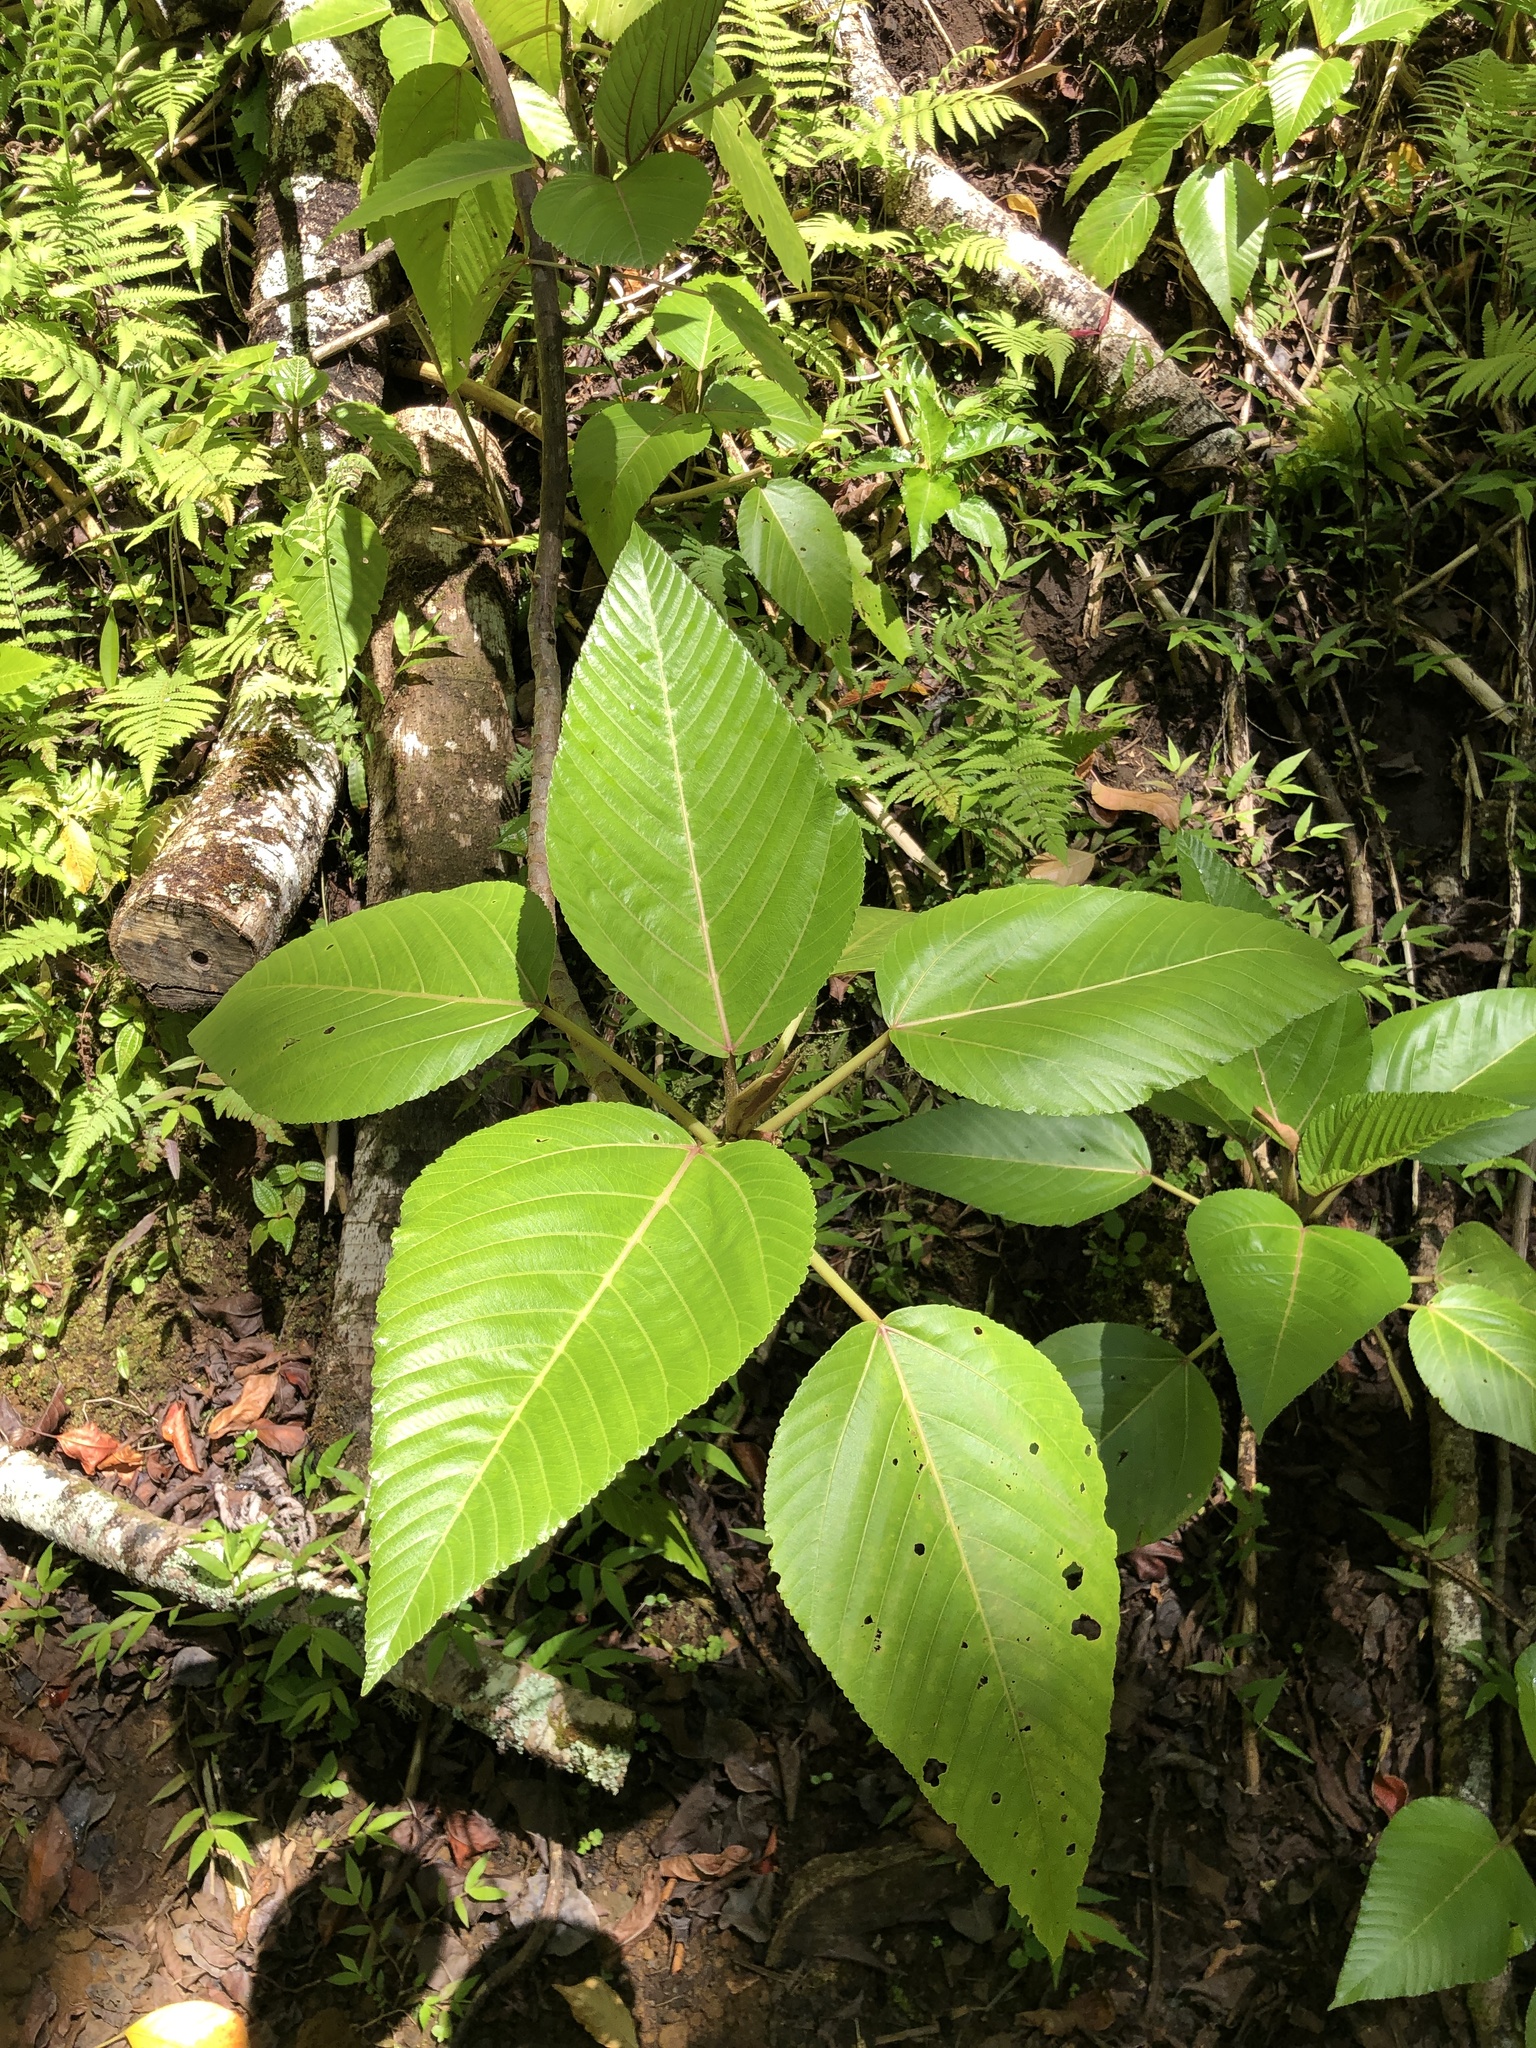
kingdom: Plantae
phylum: Tracheophyta
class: Magnoliopsida
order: Rosales
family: Urticaceae
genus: Touchardia
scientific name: Touchardia latifolia
